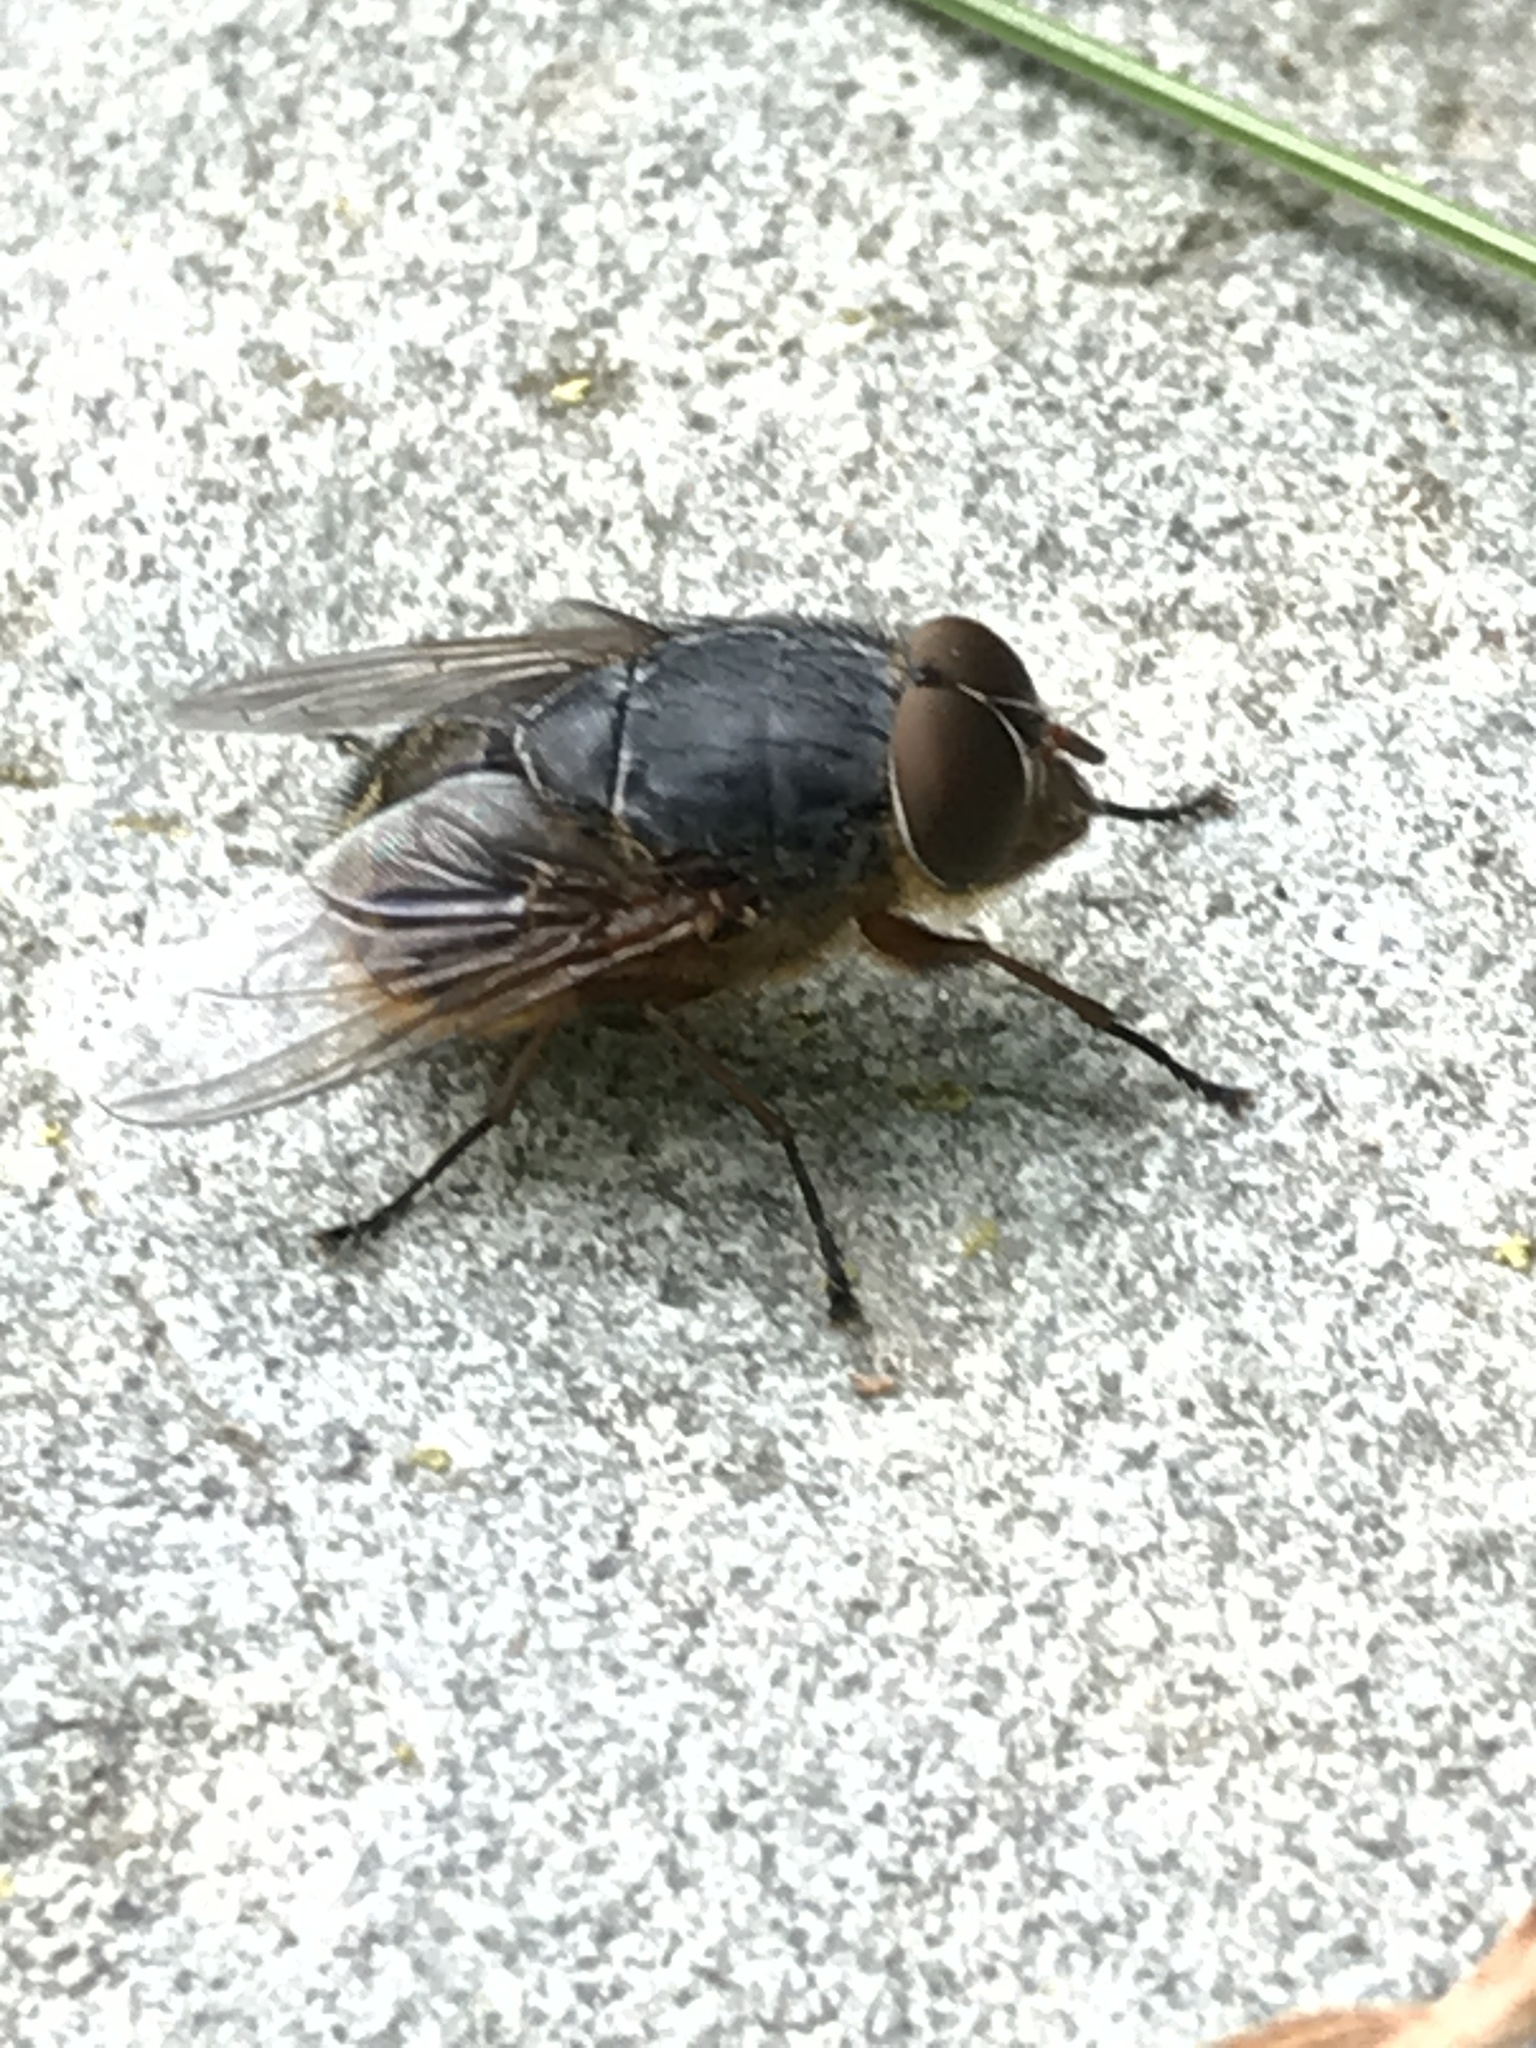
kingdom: Animalia
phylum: Arthropoda
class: Insecta
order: Diptera
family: Calliphoridae
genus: Calliphora
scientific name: Calliphora stygia
